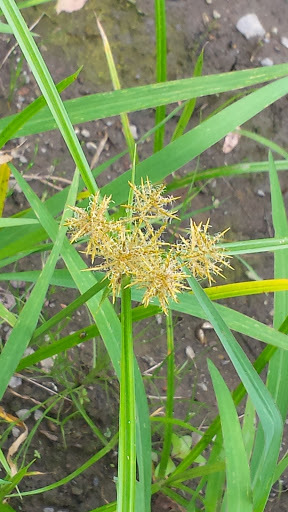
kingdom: Plantae
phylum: Tracheophyta
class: Liliopsida
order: Poales
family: Cyperaceae
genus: Cyperus
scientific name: Cyperus esculentus
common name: Yellow nutsedge
